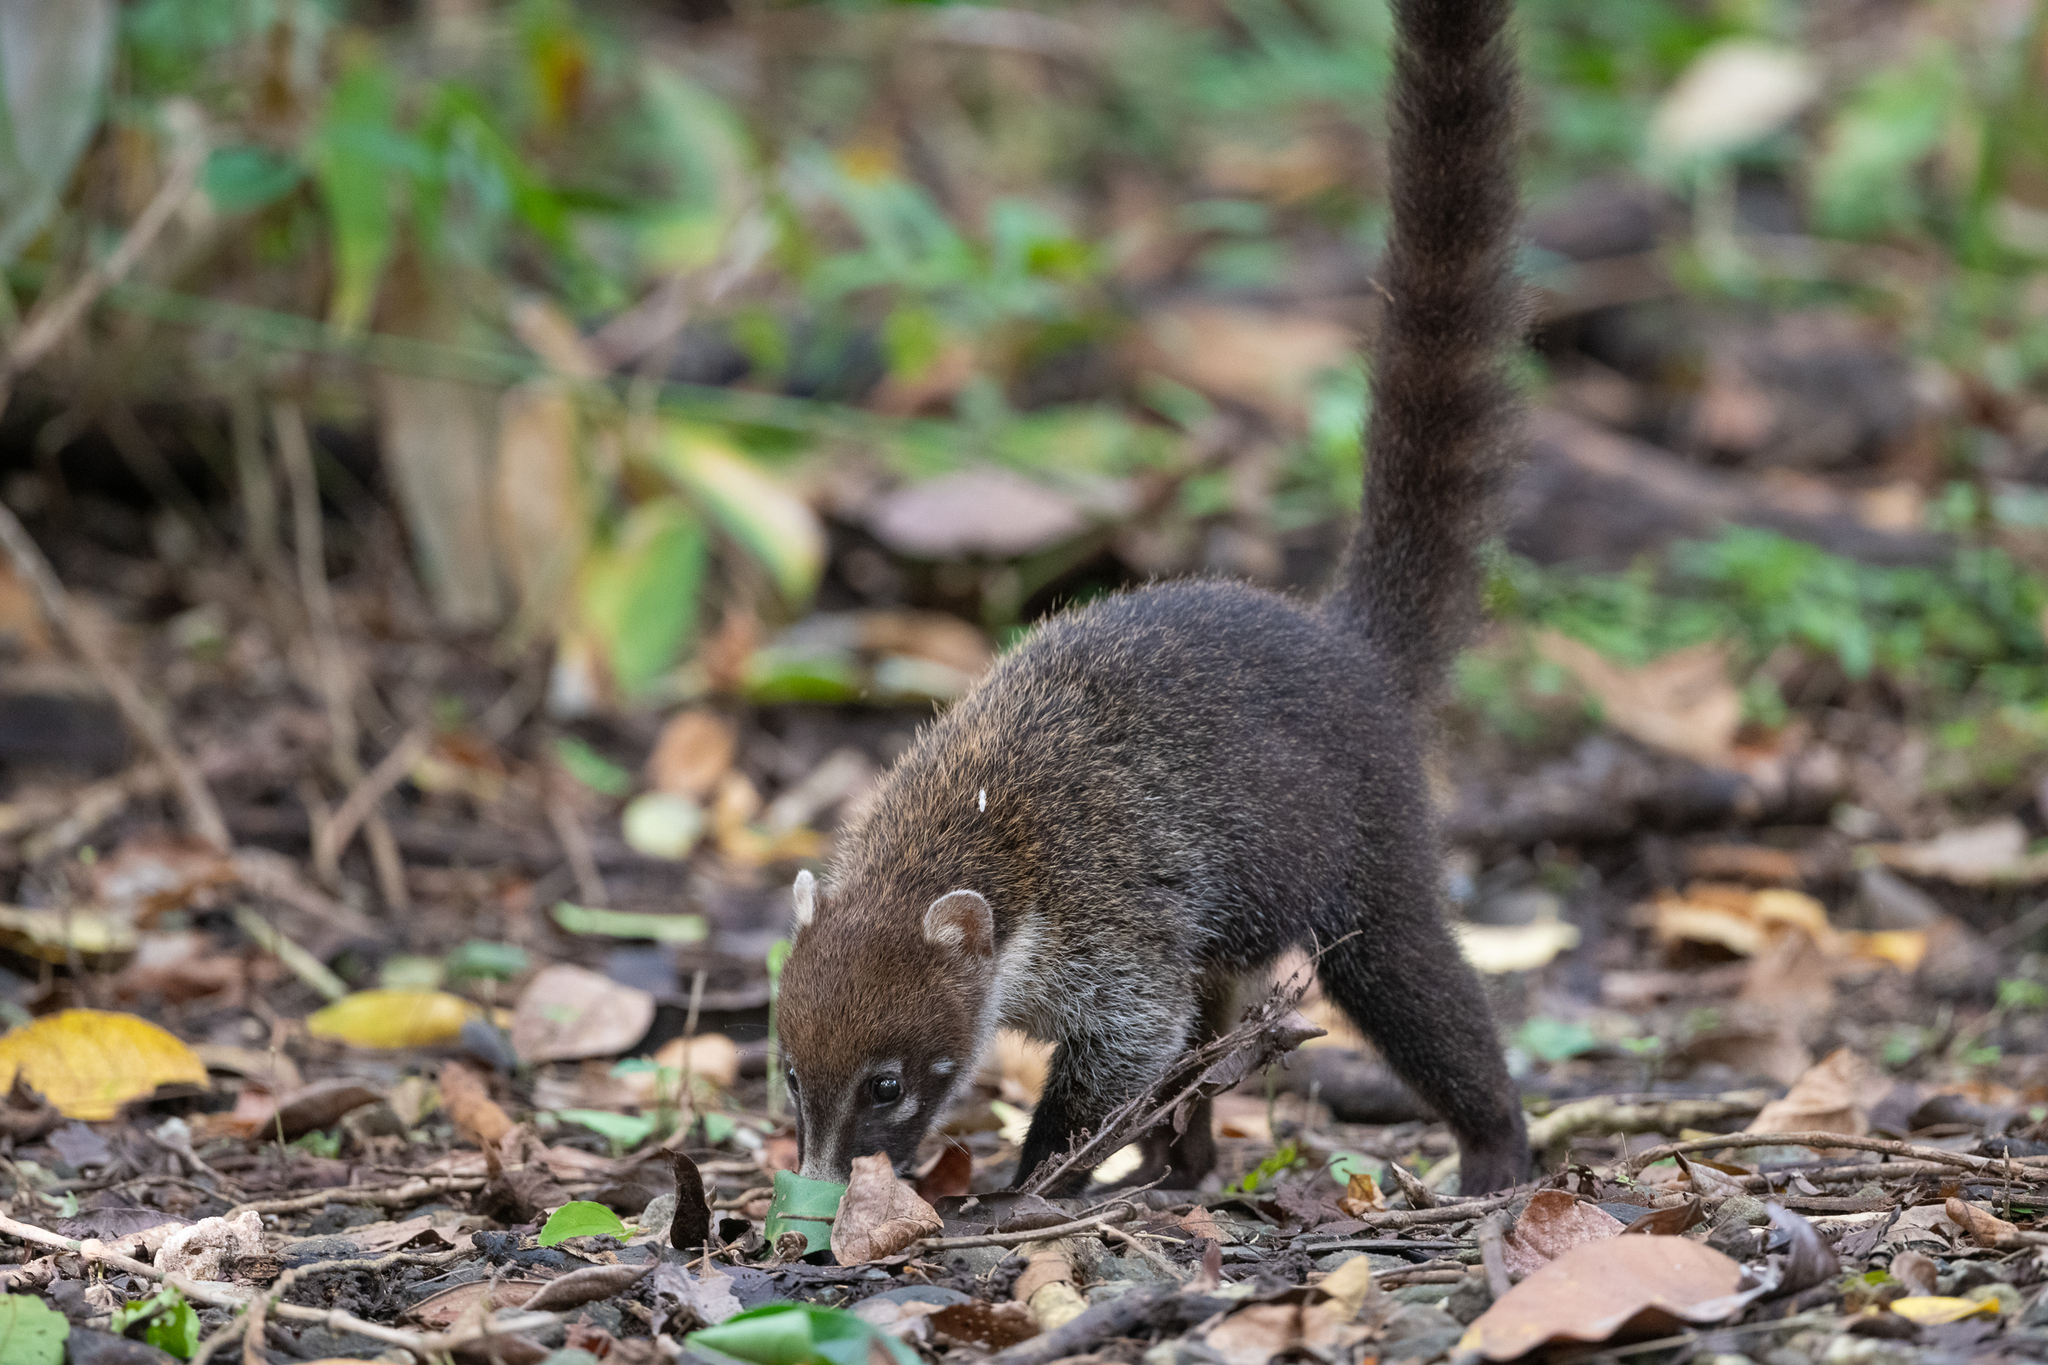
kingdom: Animalia
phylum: Chordata
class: Mammalia
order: Carnivora
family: Procyonidae
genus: Nasua
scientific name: Nasua narica
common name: White-nosed coati
